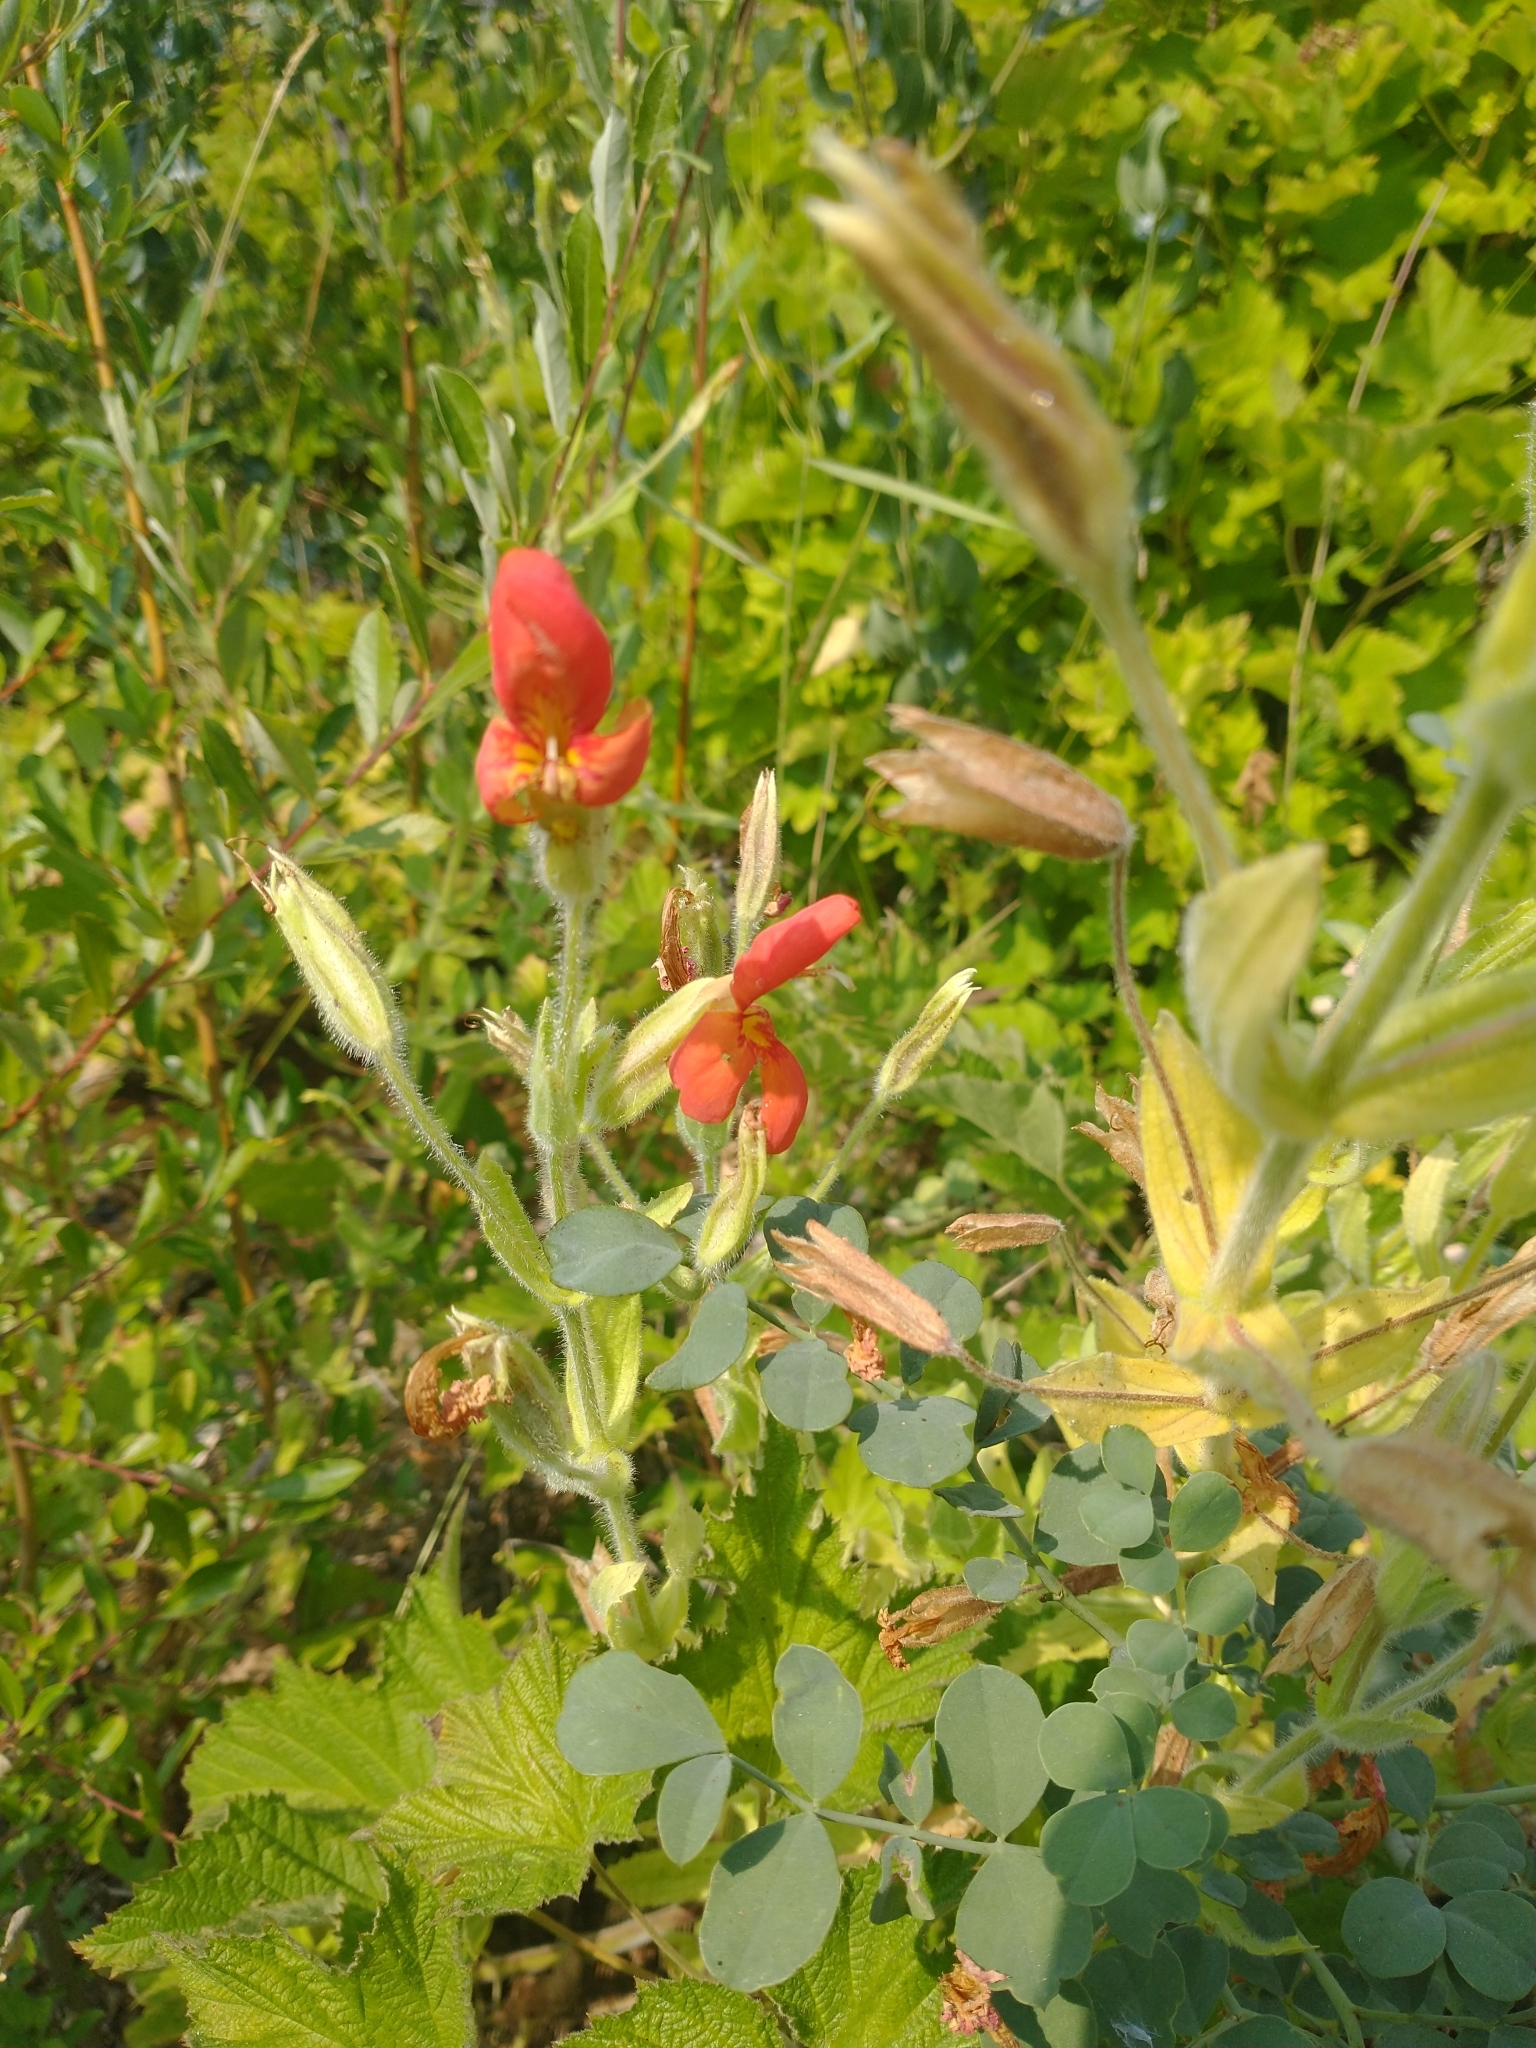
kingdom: Plantae
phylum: Tracheophyta
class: Magnoliopsida
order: Lamiales
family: Phrymaceae
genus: Erythranthe
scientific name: Erythranthe cardinalis
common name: Scarlet monkey-flower
